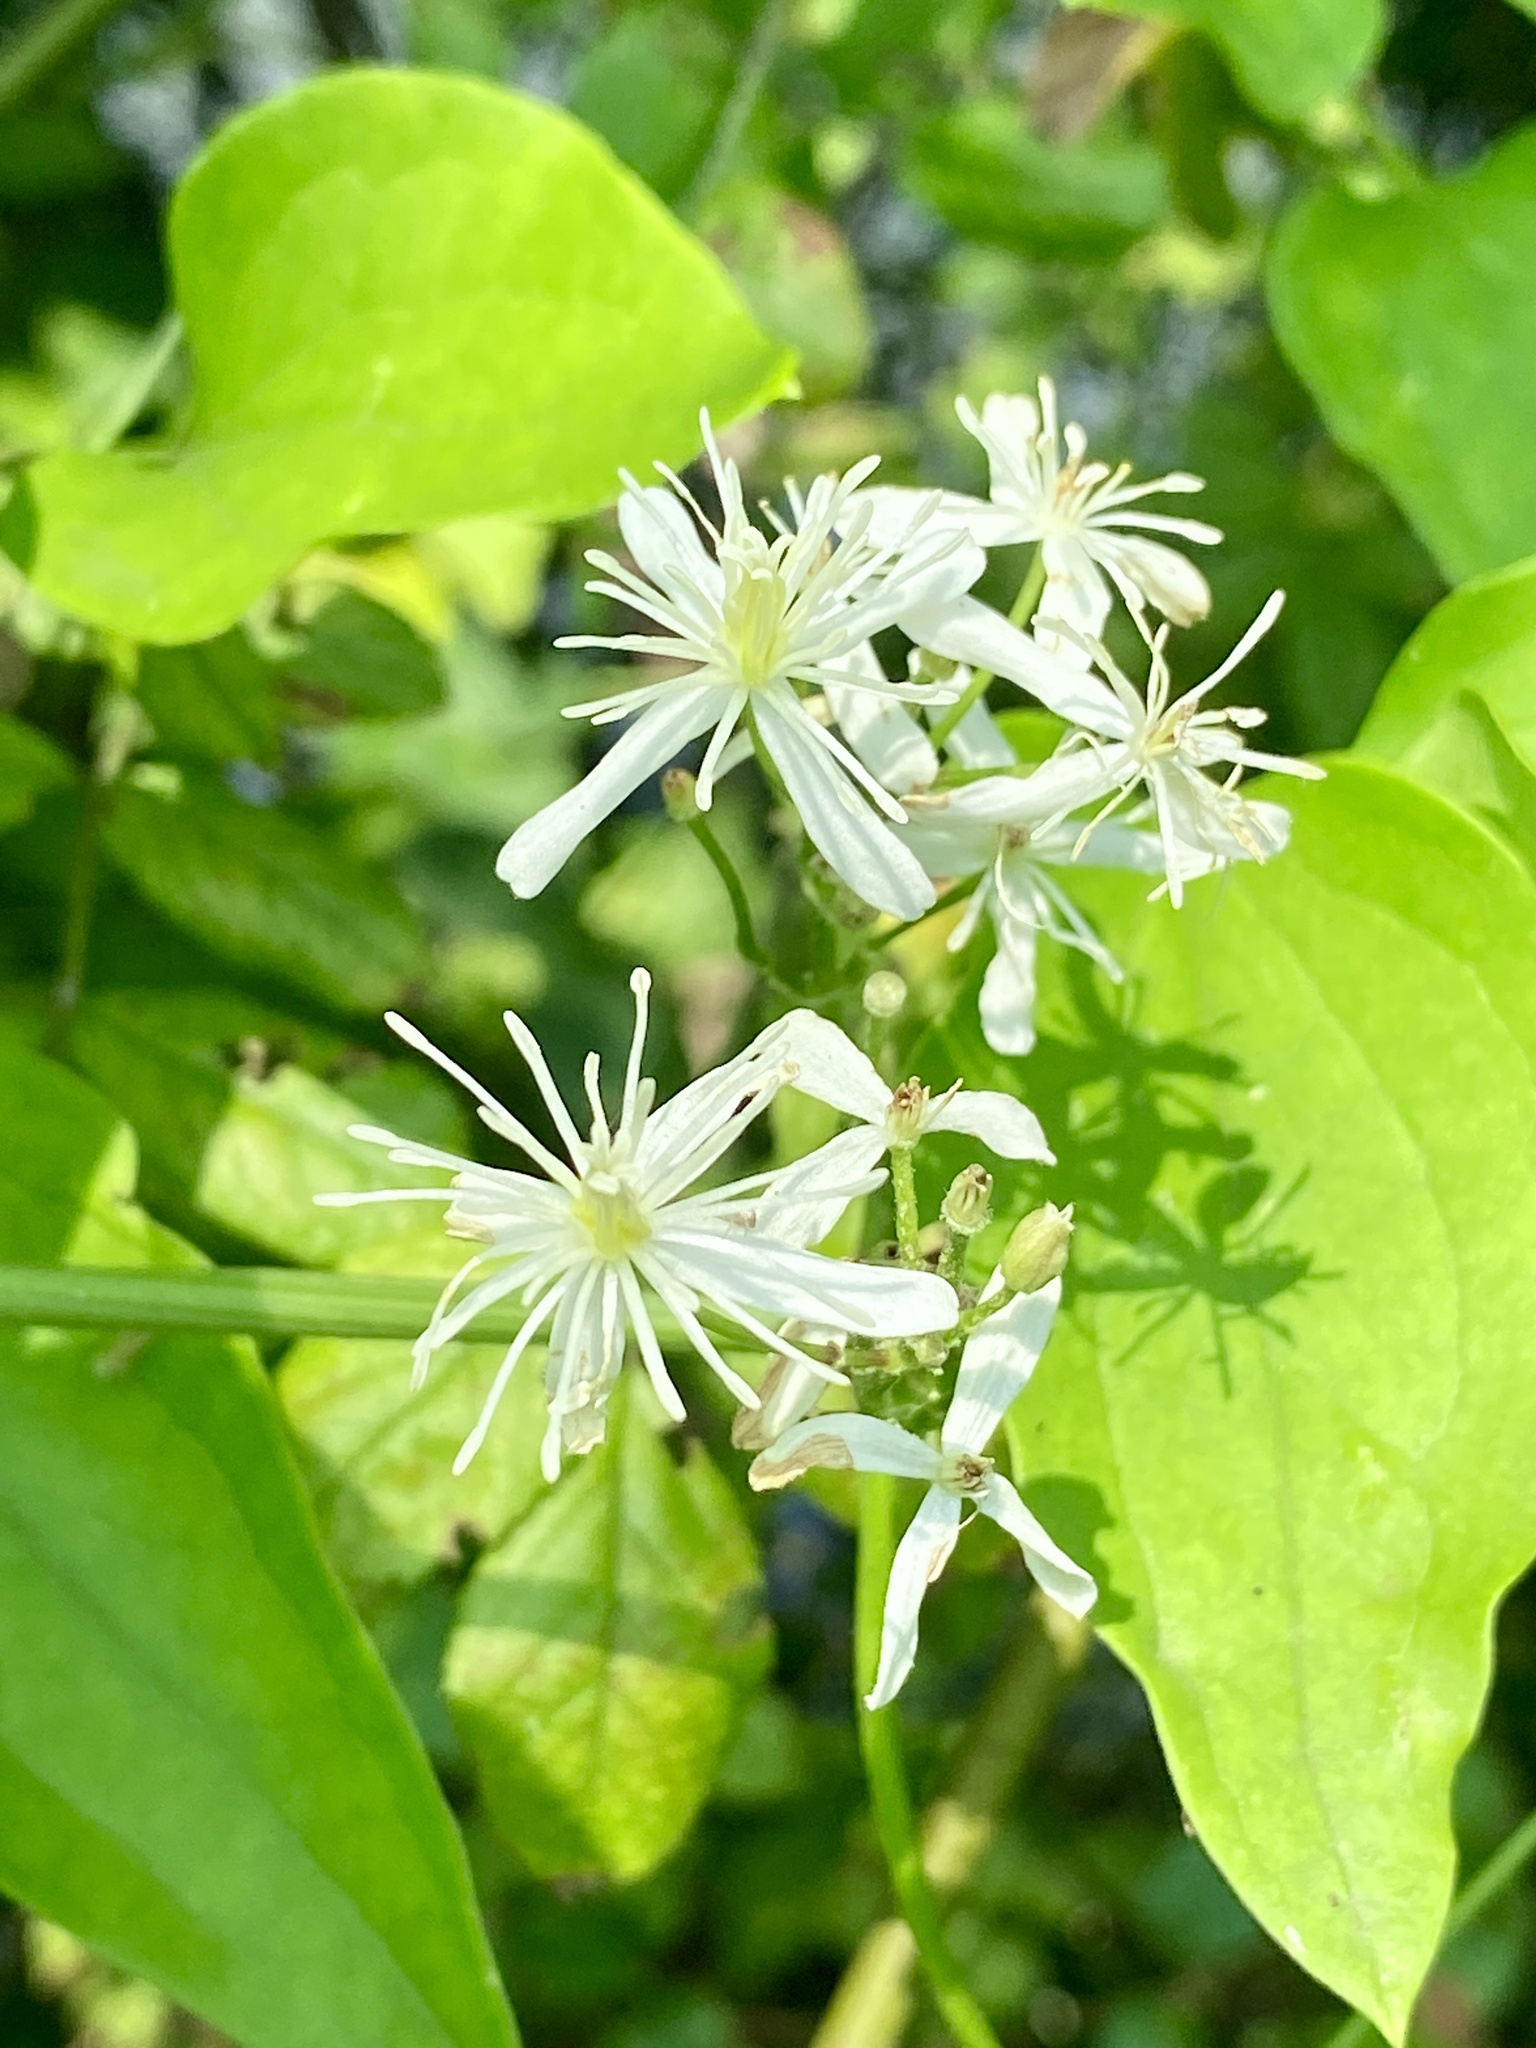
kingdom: Plantae
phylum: Tracheophyta
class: Magnoliopsida
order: Ranunculales
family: Ranunculaceae
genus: Clematis
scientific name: Clematis terniflora
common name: Sweet autumn clematis
